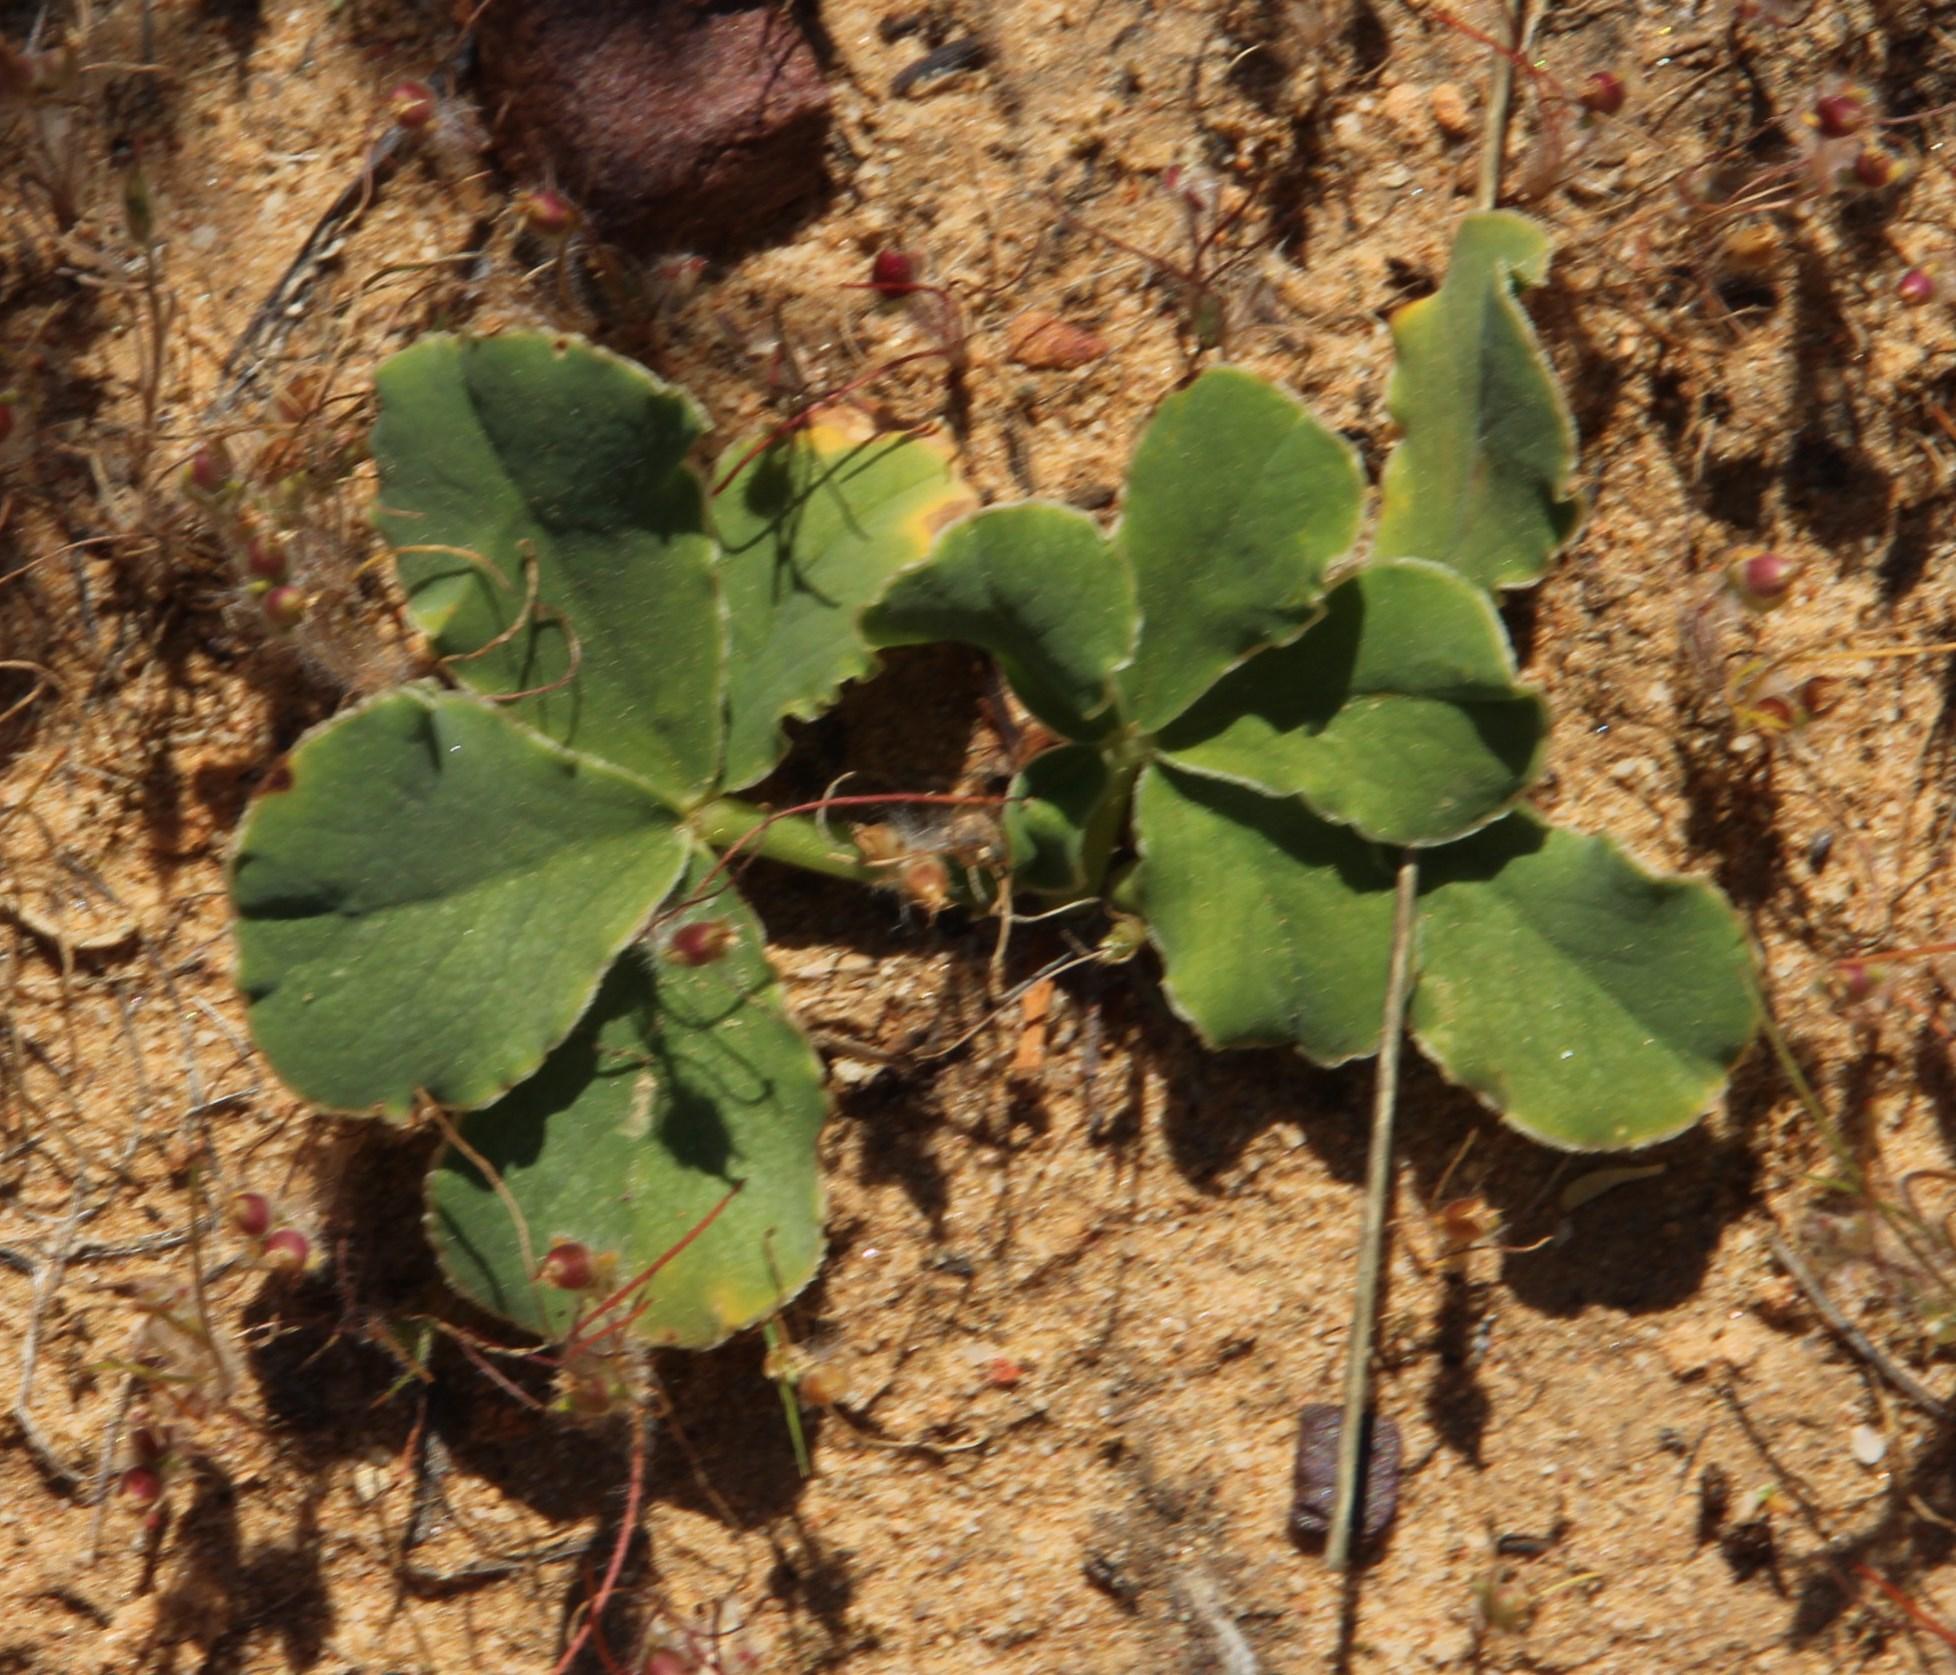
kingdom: Plantae
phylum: Tracheophyta
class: Magnoliopsida
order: Oxalidales
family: Oxalidaceae
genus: Oxalis
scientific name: Oxalis flava
